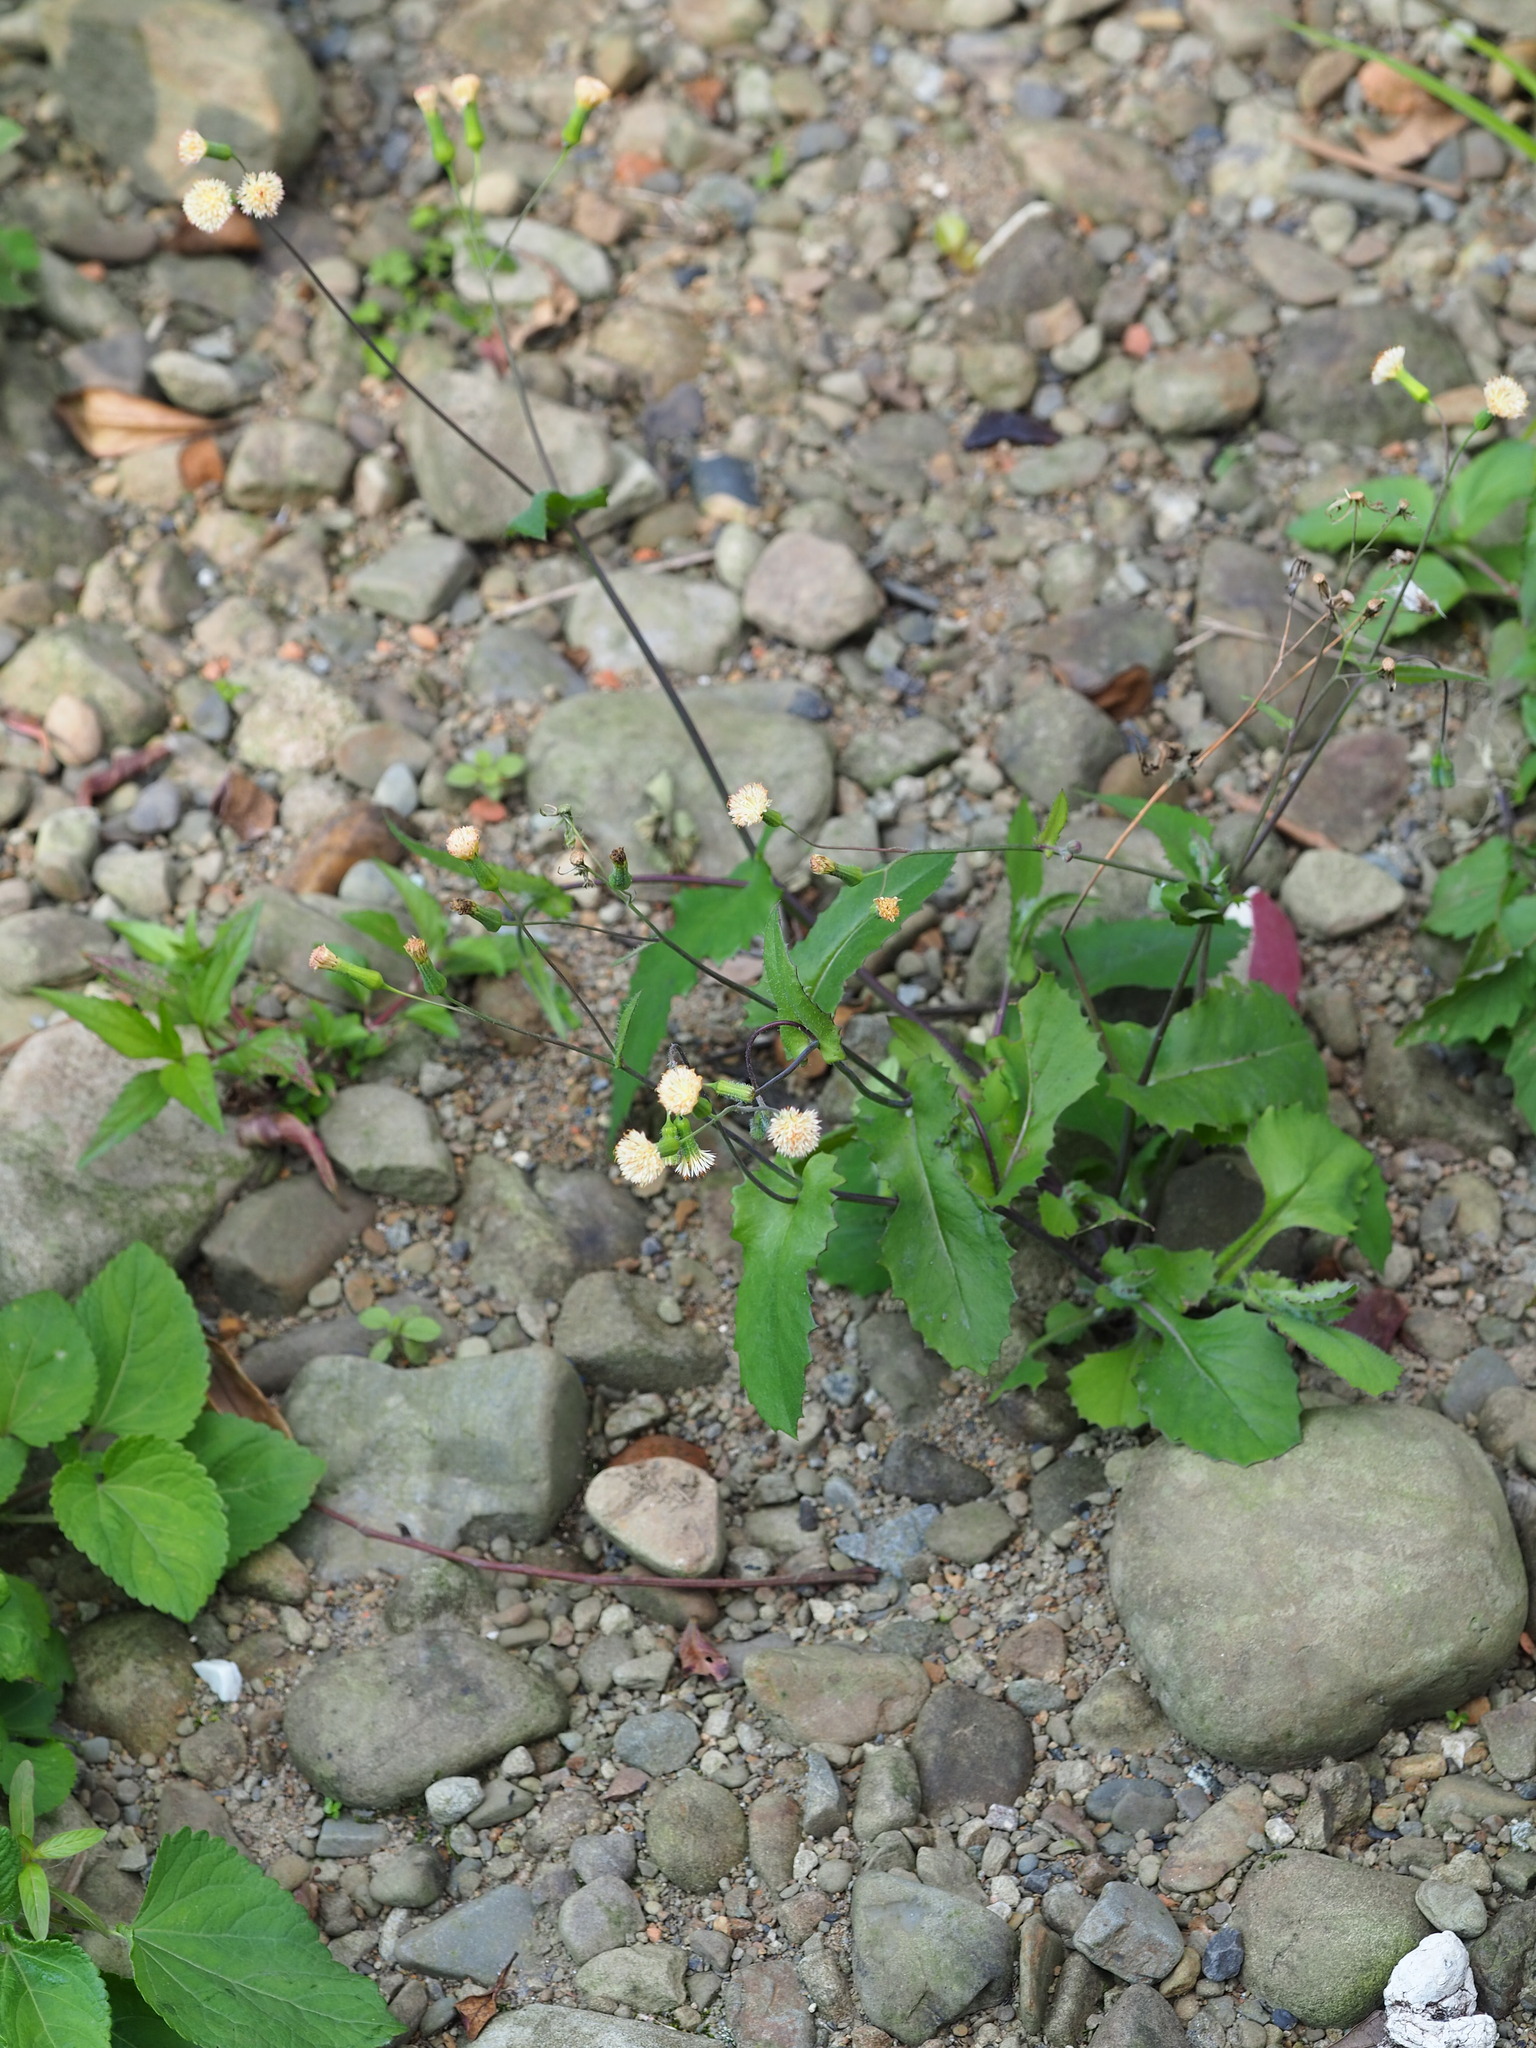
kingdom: Plantae
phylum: Tracheophyta
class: Magnoliopsida
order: Asterales
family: Asteraceae
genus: Emilia
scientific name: Emilia praetermissa
